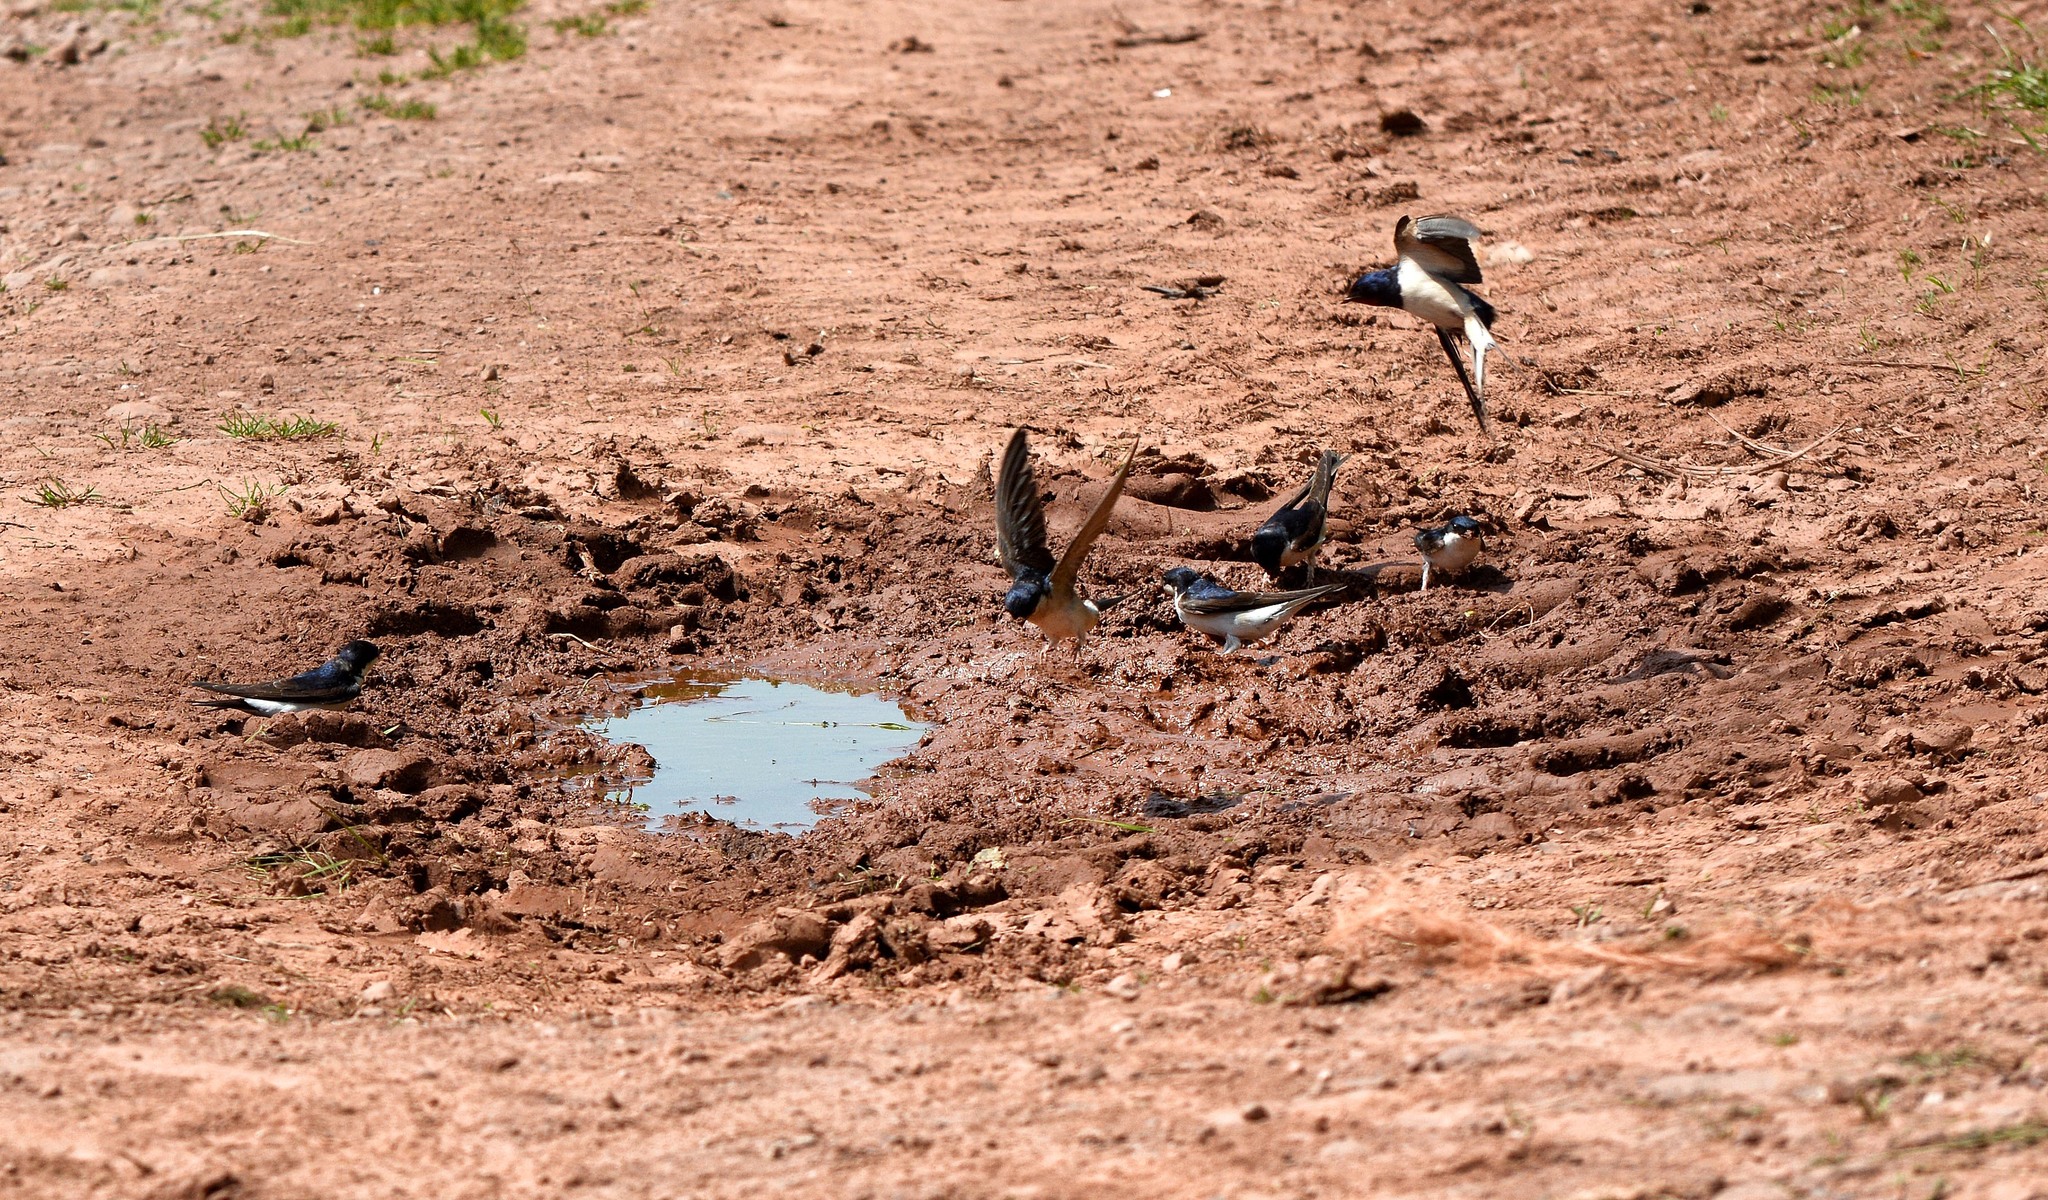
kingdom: Animalia
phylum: Chordata
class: Aves
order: Passeriformes
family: Hirundinidae
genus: Delichon
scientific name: Delichon urbicum
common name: Common house martin
